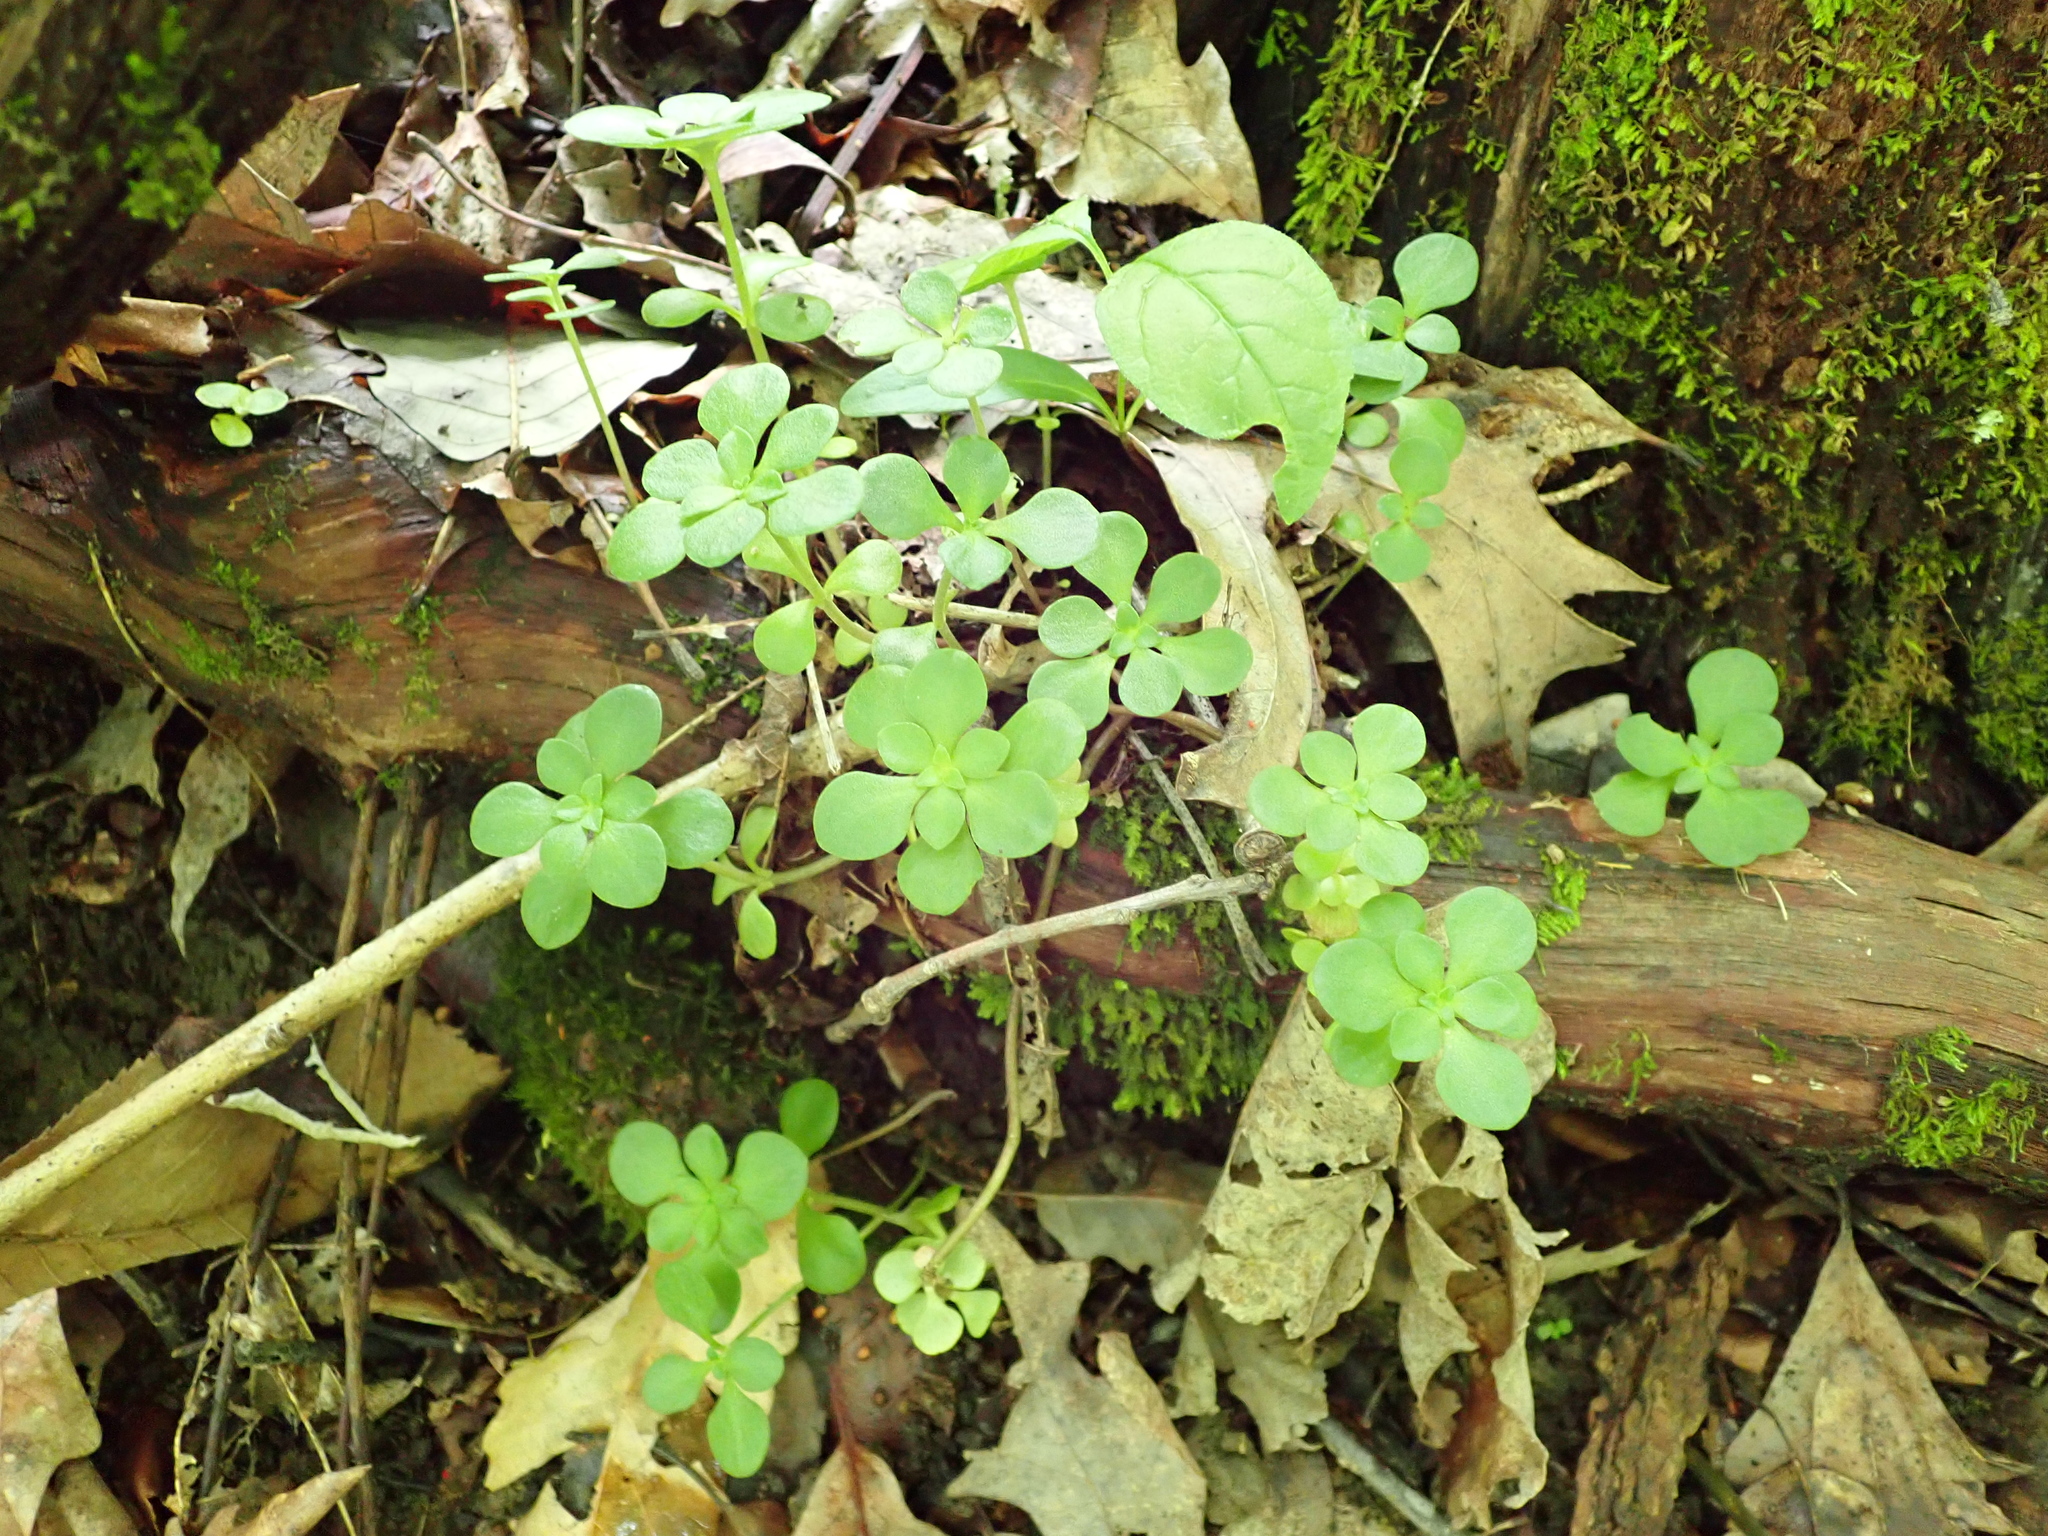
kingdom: Plantae
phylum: Tracheophyta
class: Magnoliopsida
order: Saxifragales
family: Crassulaceae
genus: Sedum
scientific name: Sedum ternatum
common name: Wild stonecrop
